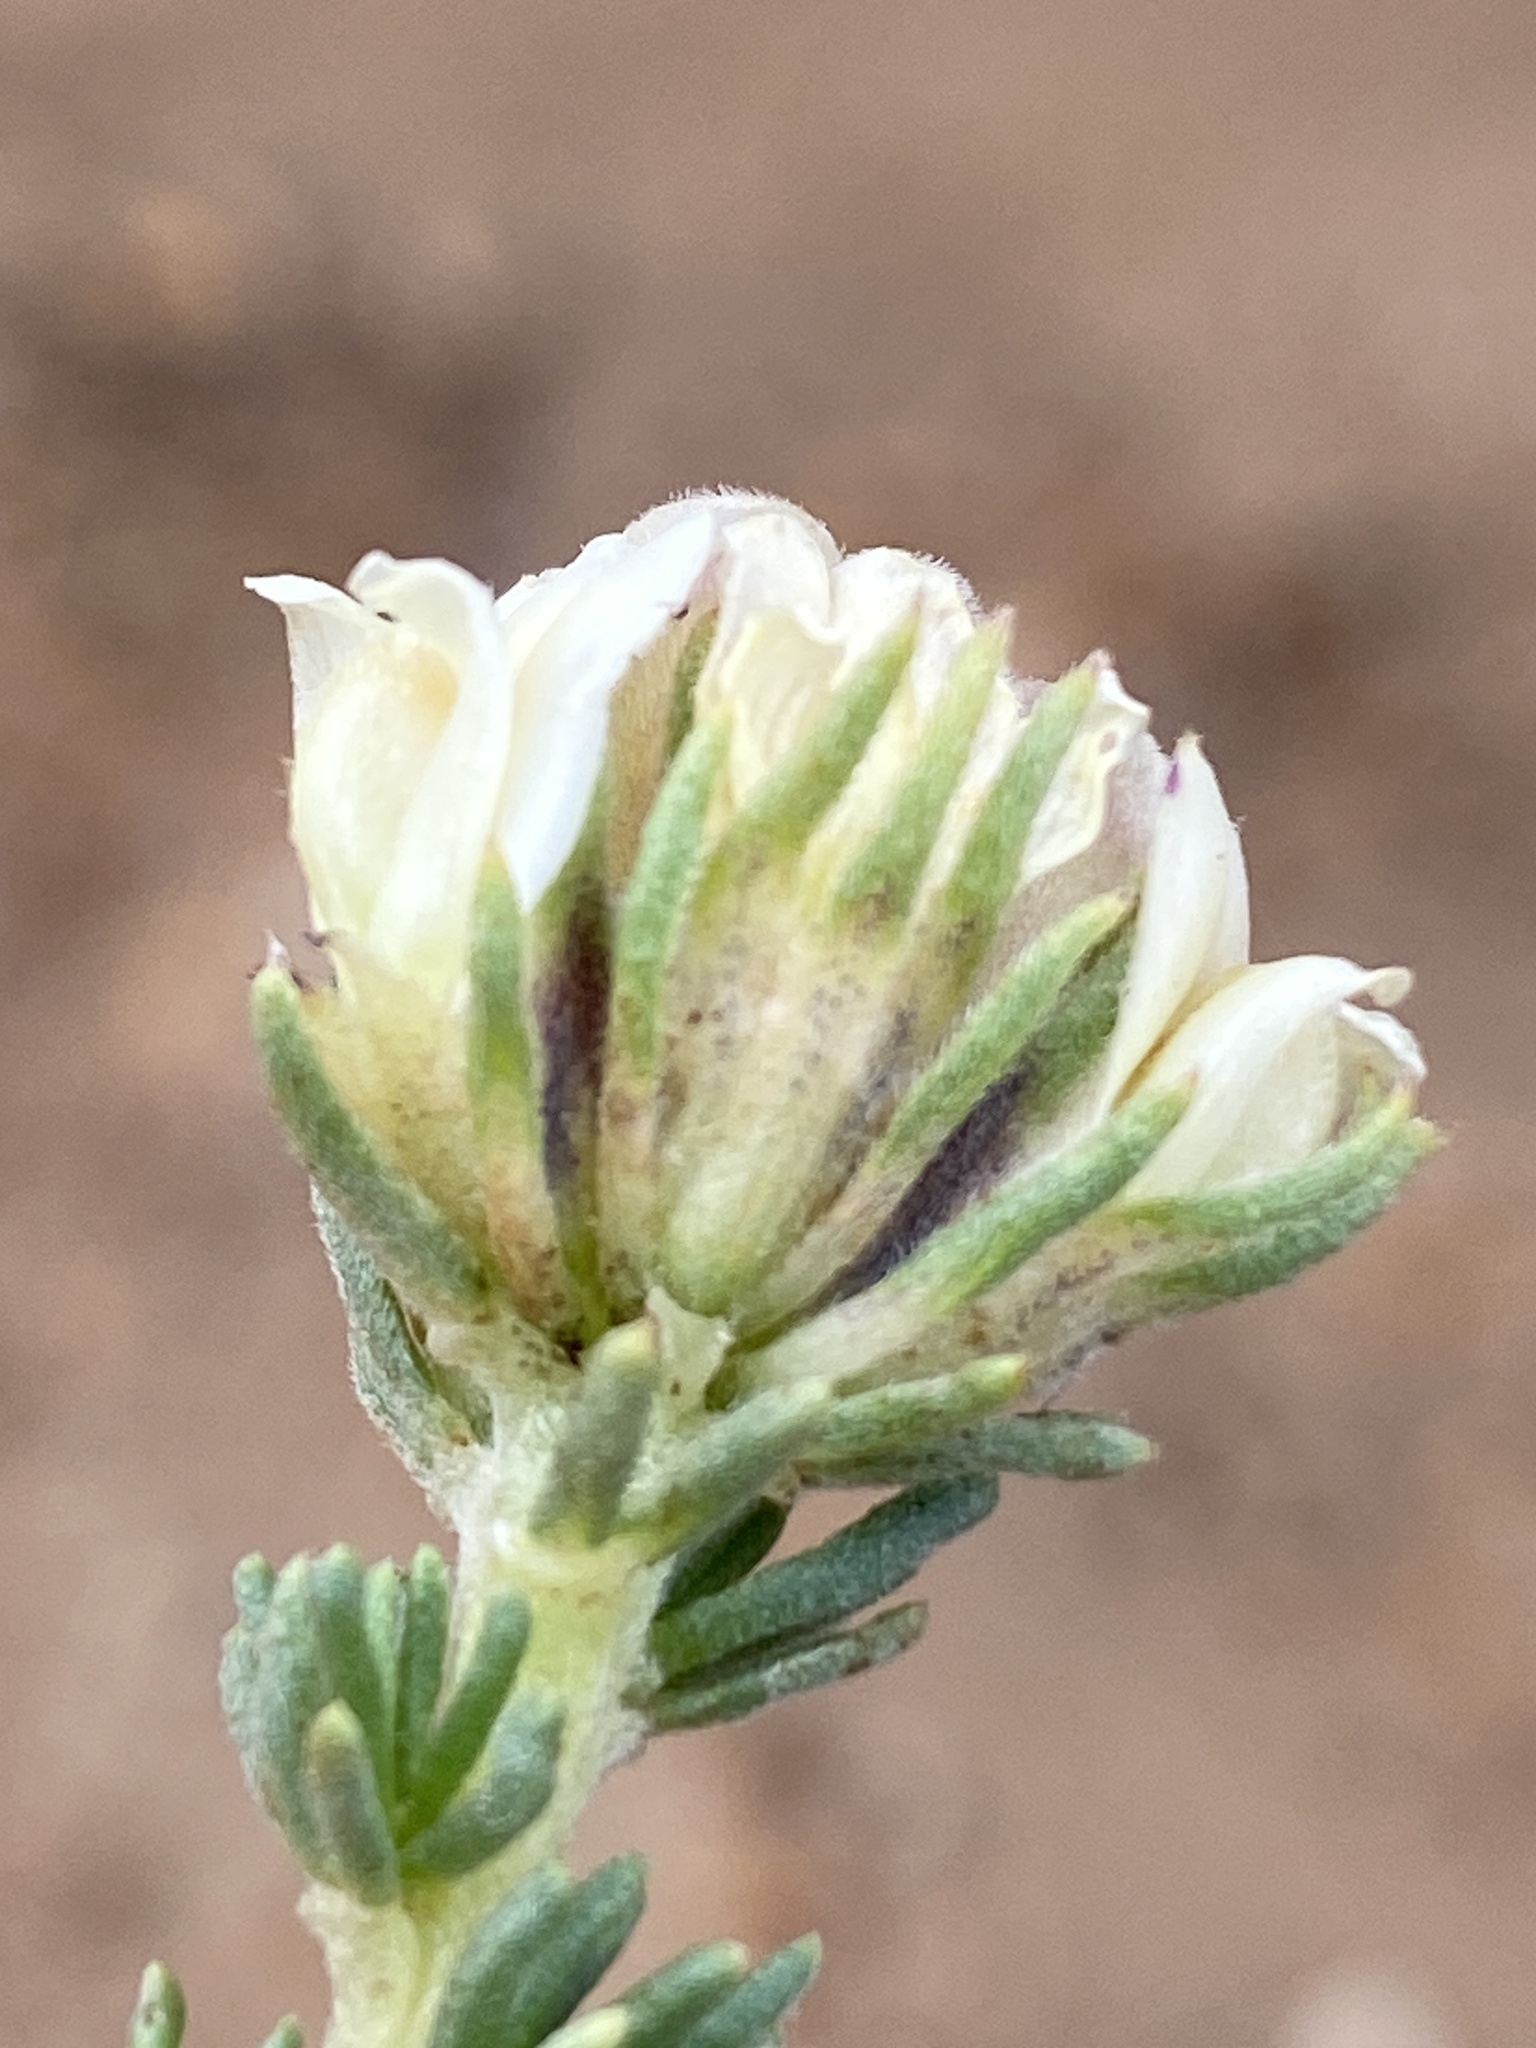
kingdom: Plantae
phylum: Tracheophyta
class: Magnoliopsida
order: Fabales
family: Fabaceae
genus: Aspalathus
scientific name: Aspalathus forbesii
